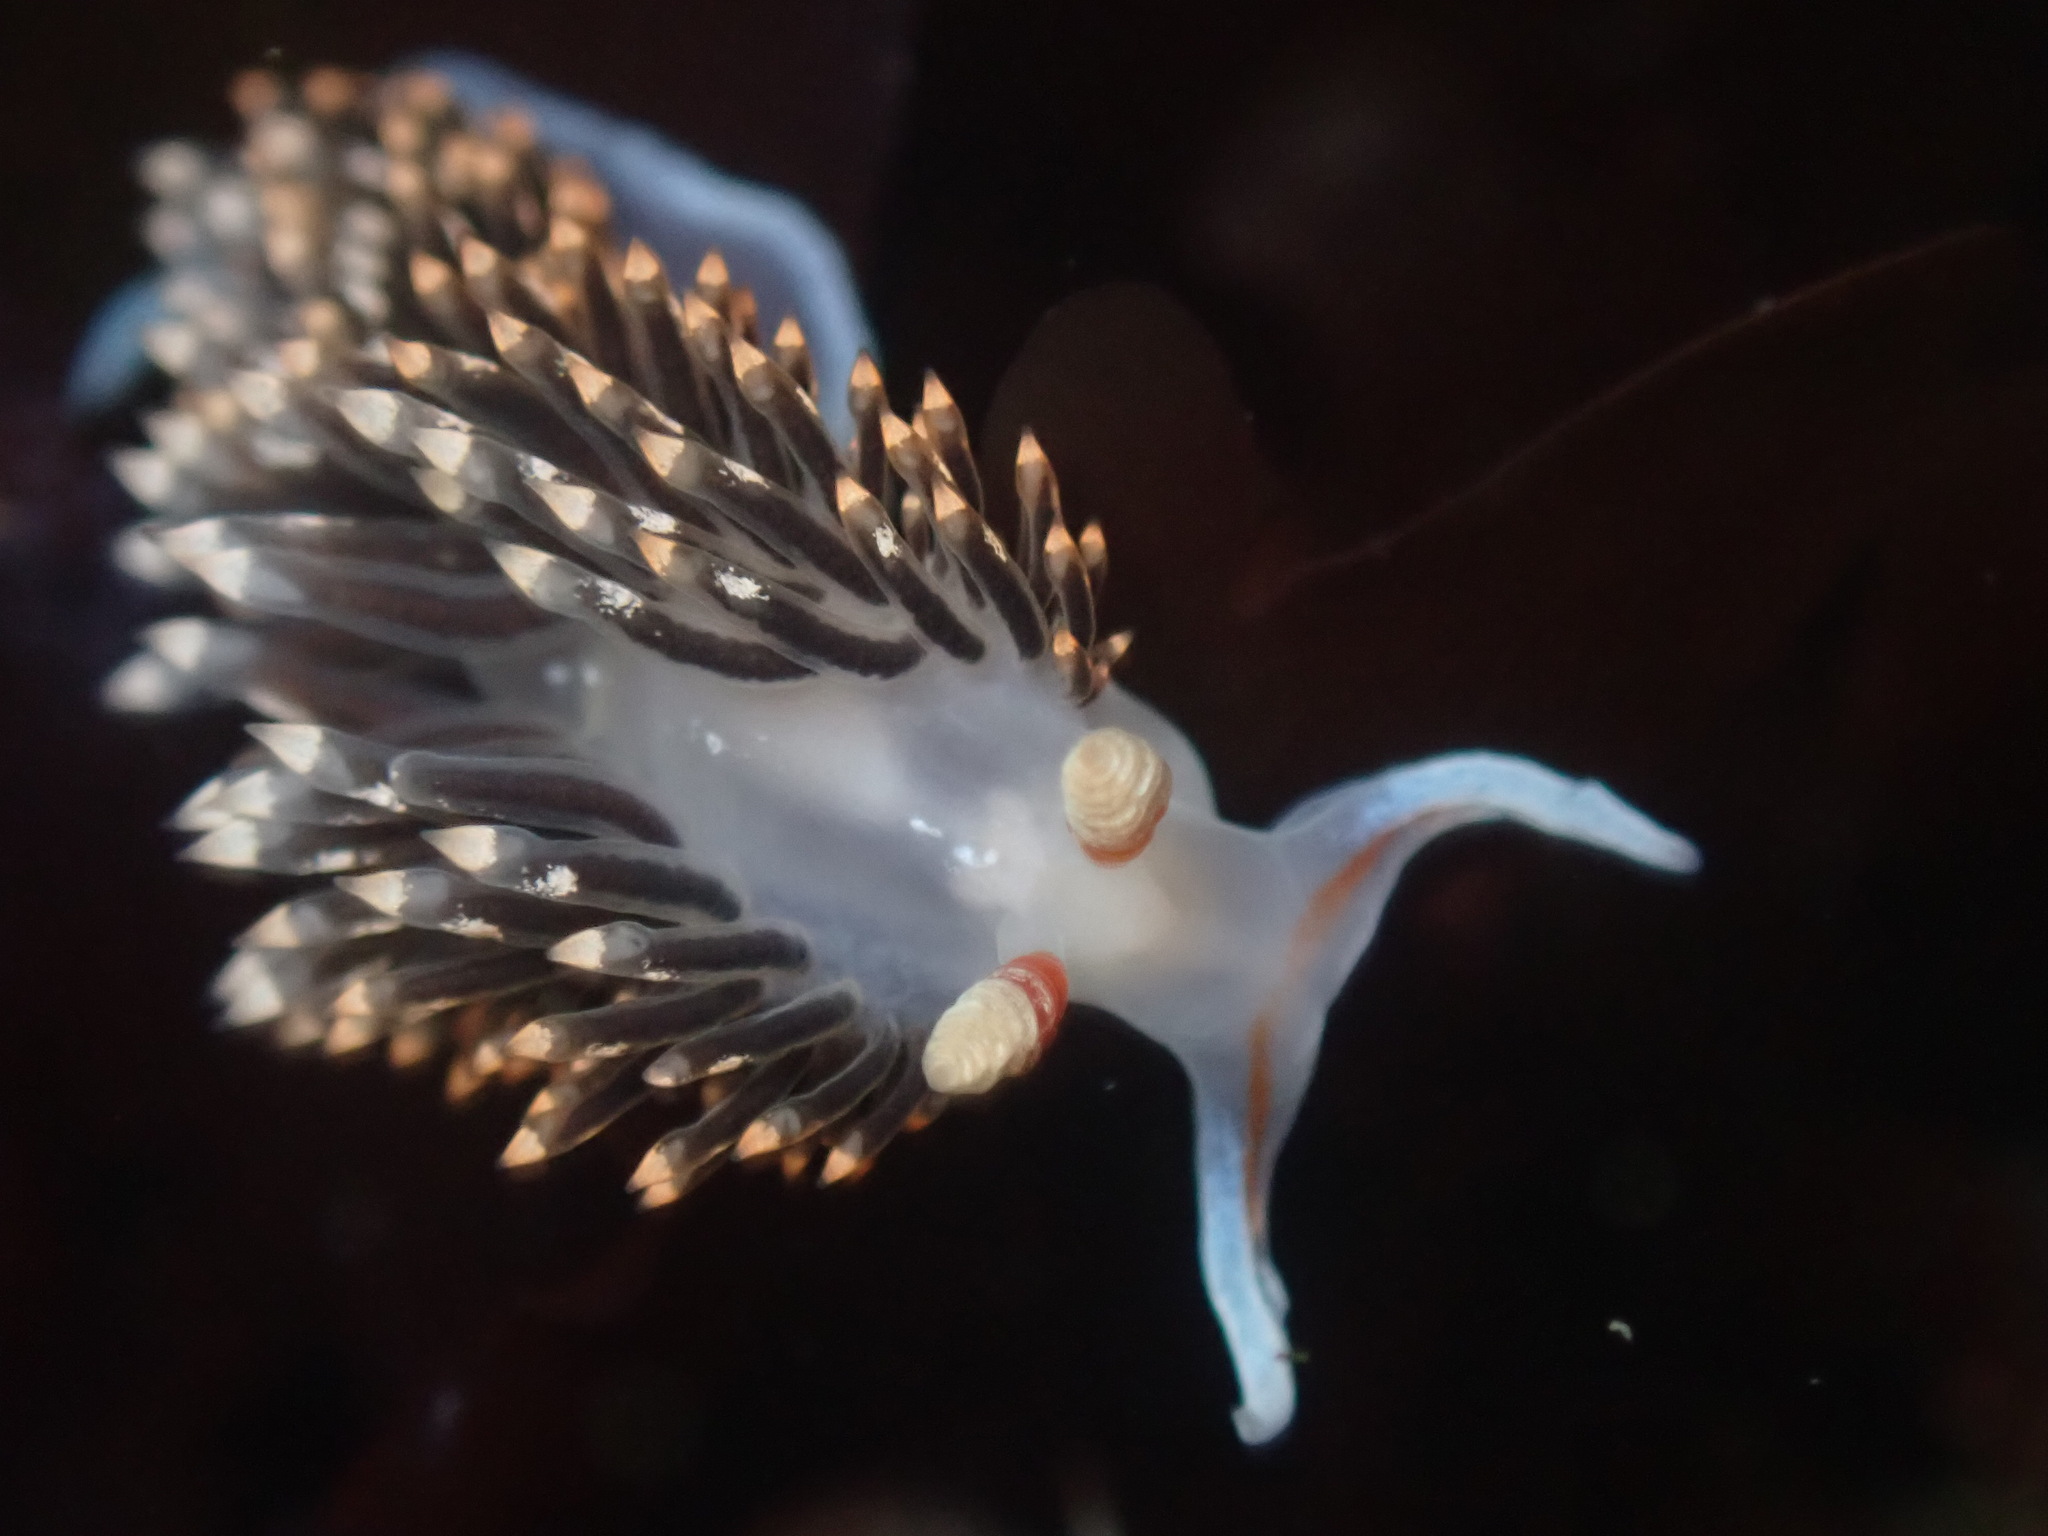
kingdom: Animalia
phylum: Mollusca
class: Gastropoda
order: Nudibranchia
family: Facelinidae
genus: Phidiana
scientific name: Phidiana hiltoni
